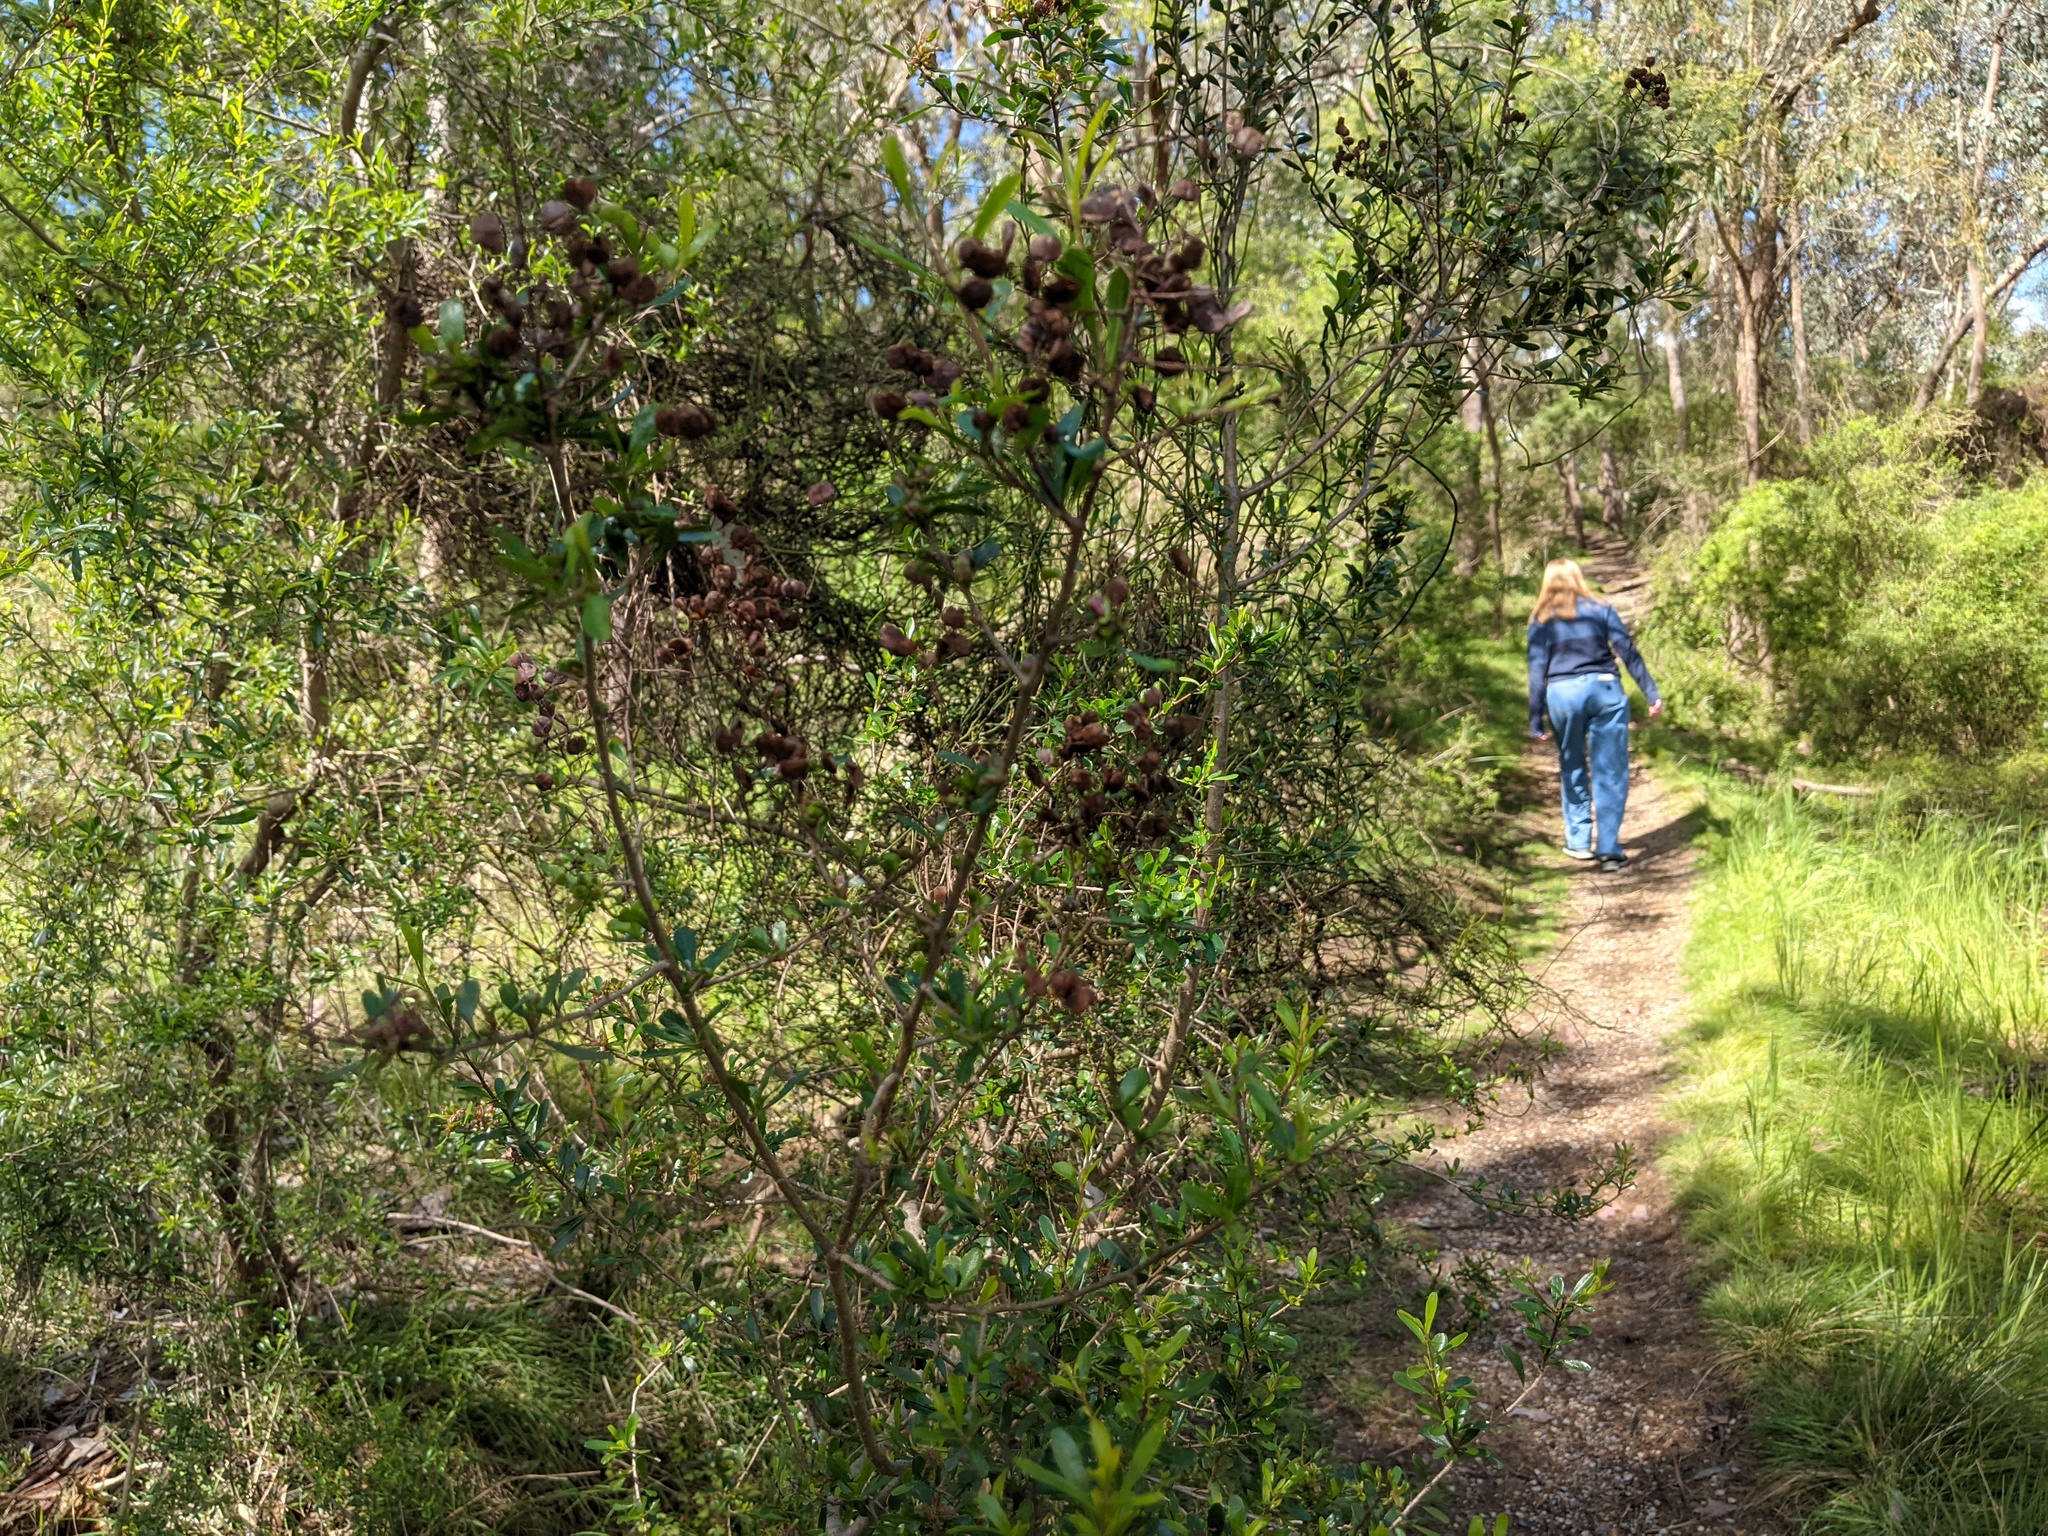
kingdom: Plantae
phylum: Tracheophyta
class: Magnoliopsida
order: Apiales
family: Pittosporaceae
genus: Bursaria
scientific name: Bursaria spinosa
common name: Australian blackthorn
